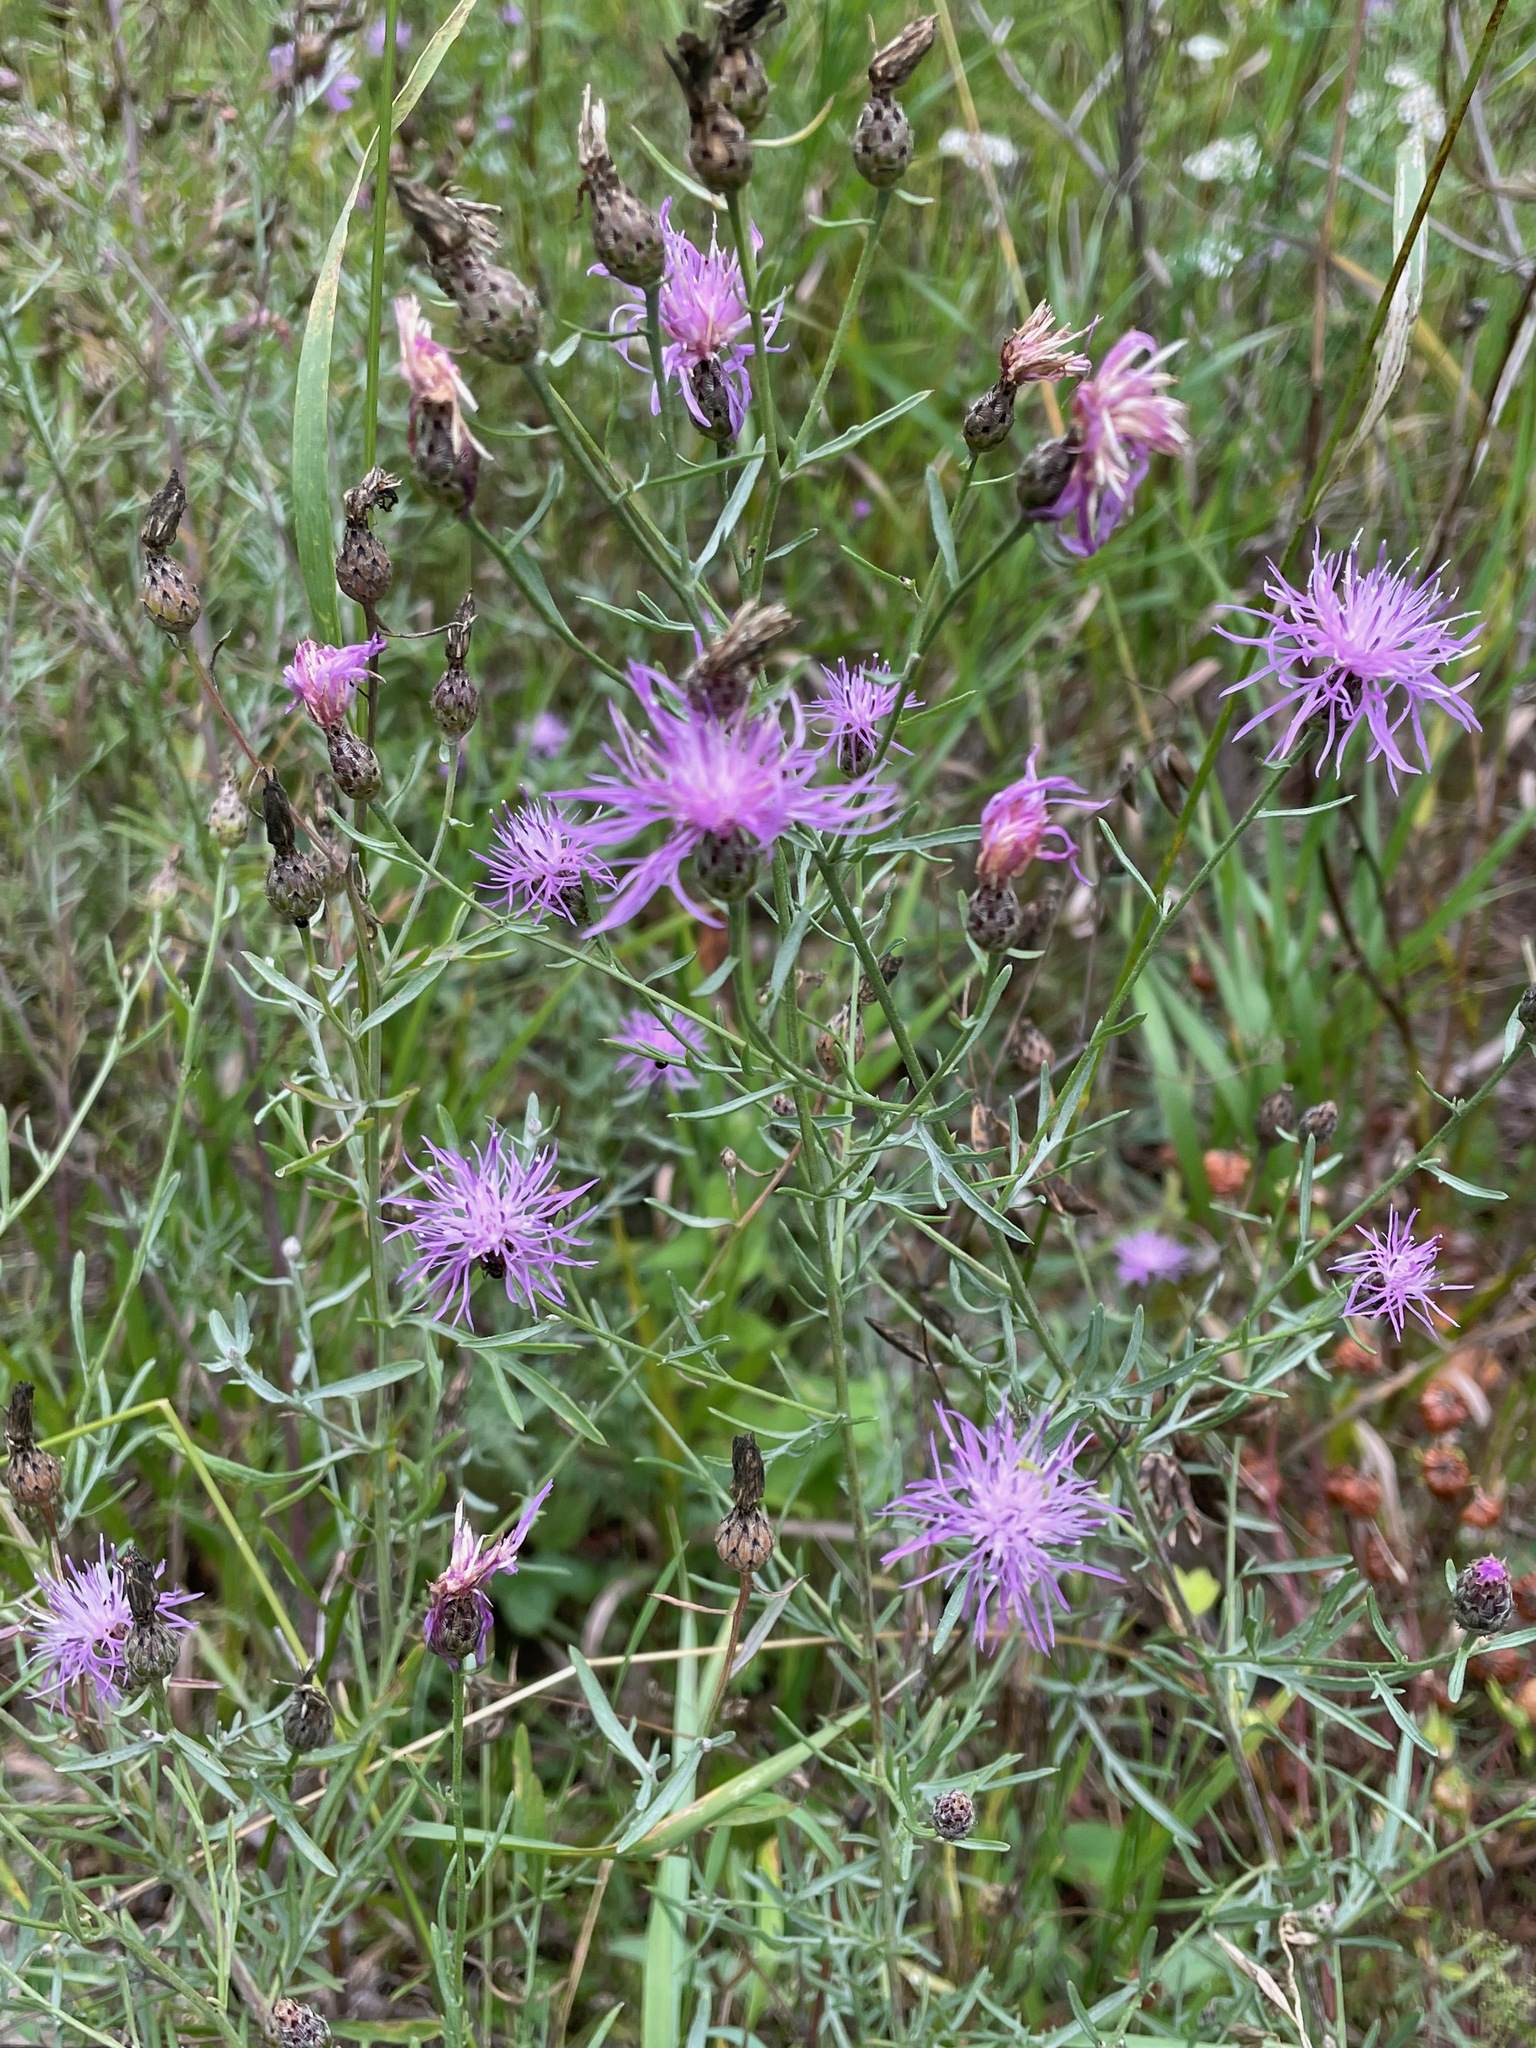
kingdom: Plantae
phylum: Tracheophyta
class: Magnoliopsida
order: Asterales
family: Asteraceae
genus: Centaurea
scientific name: Centaurea stoebe
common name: Spotted knapweed
